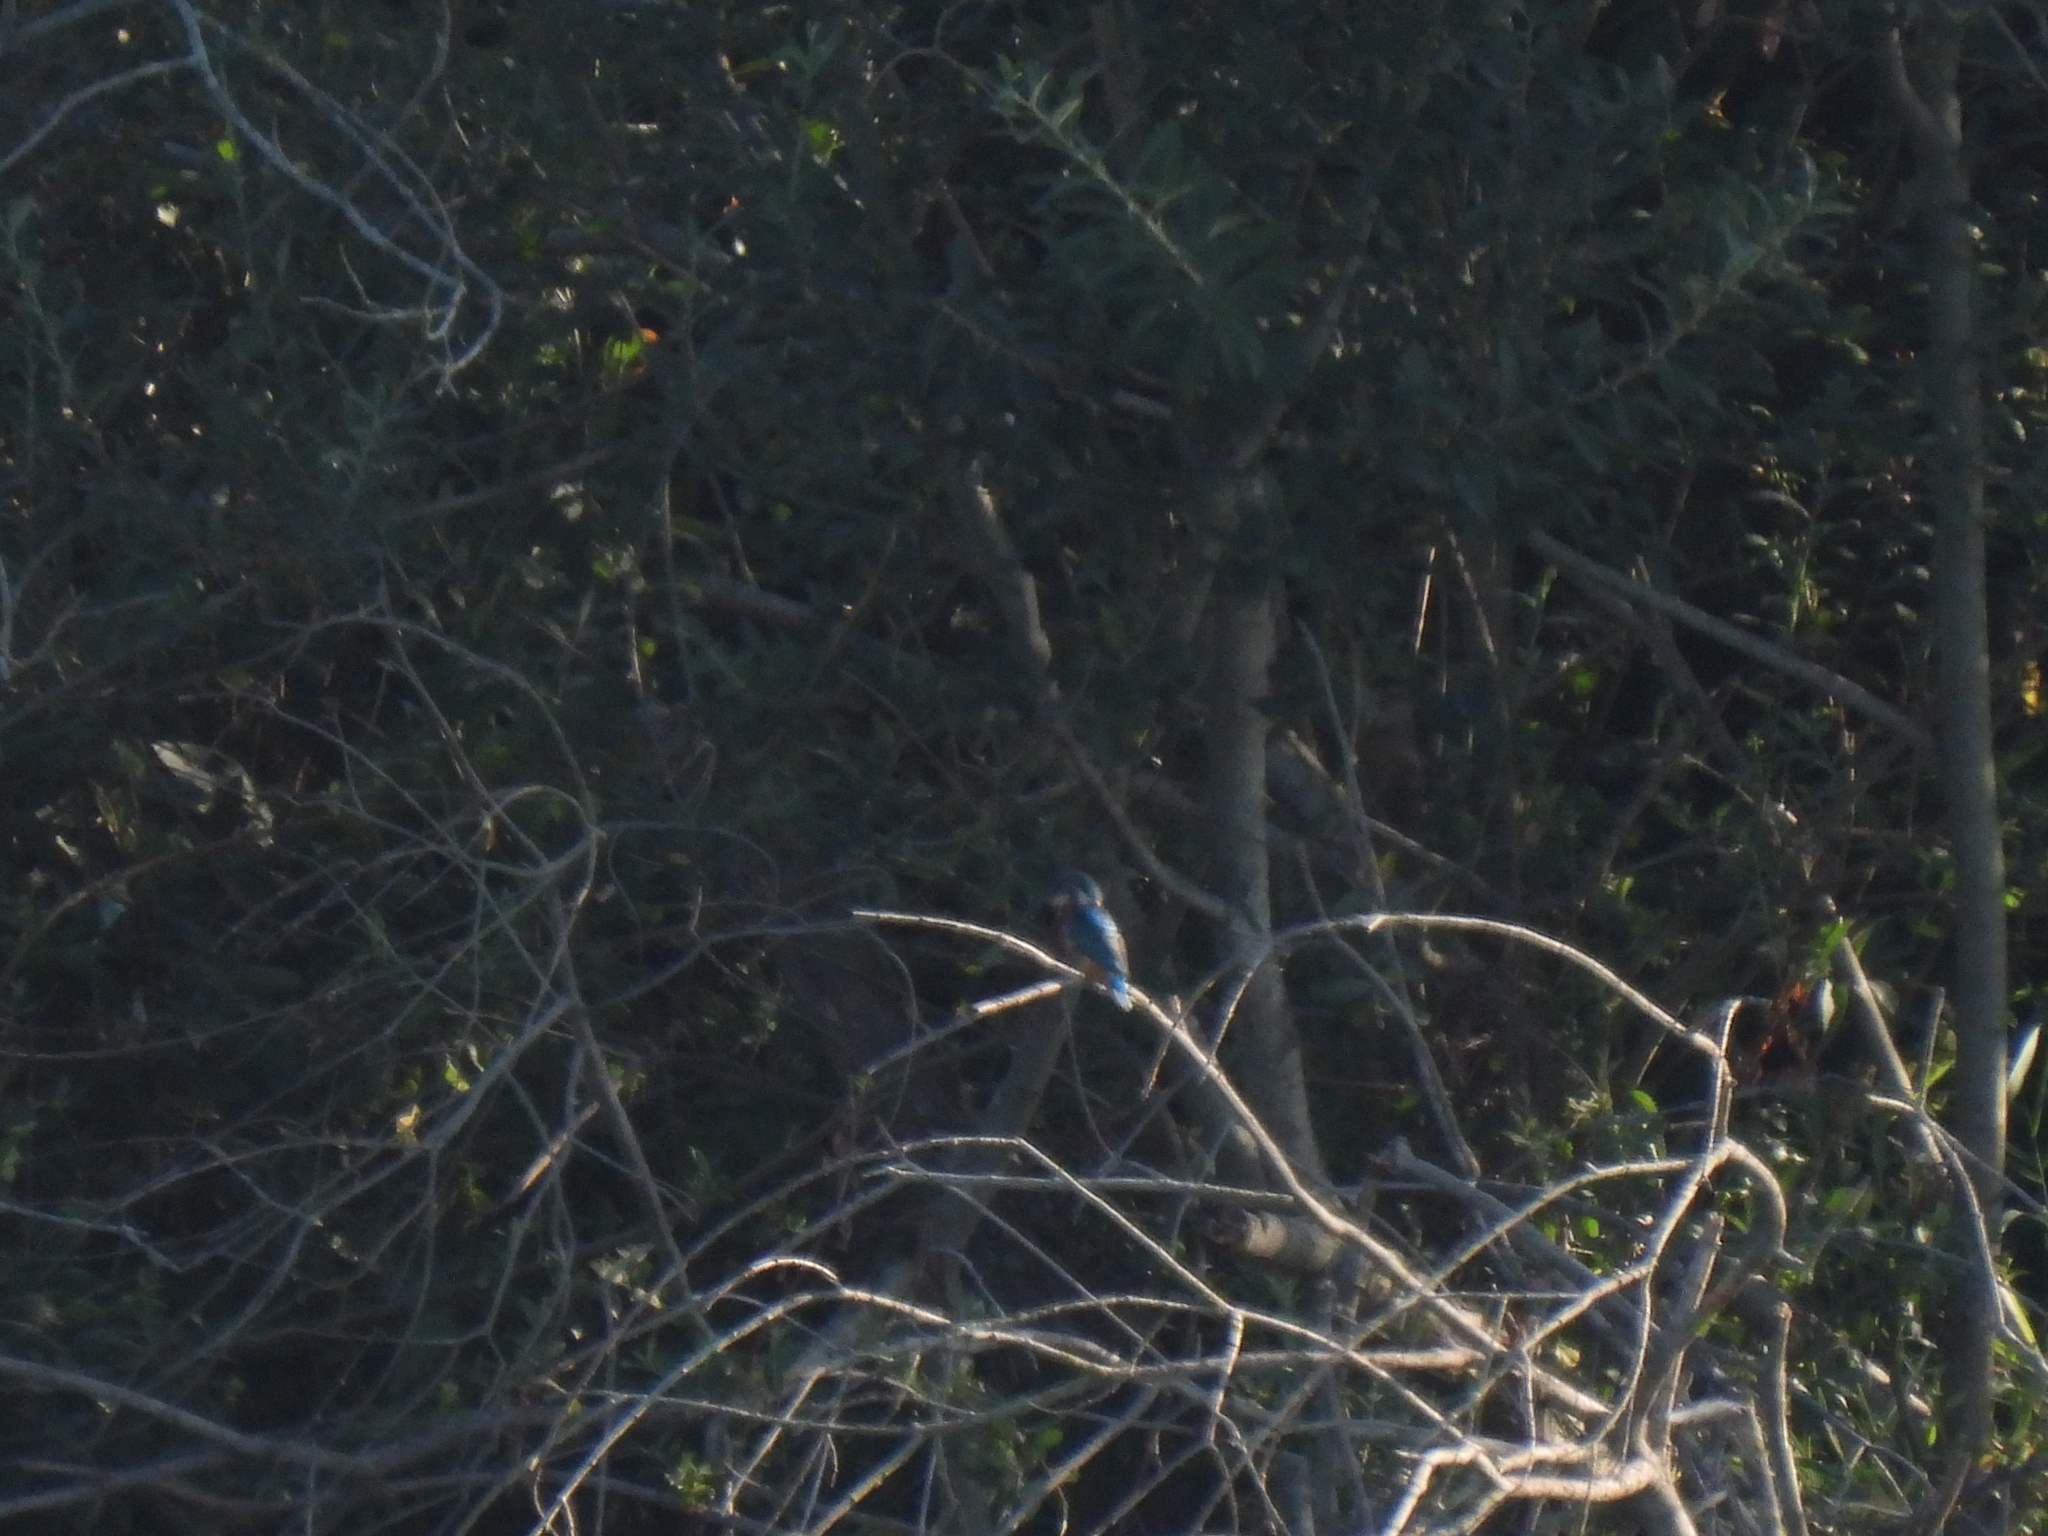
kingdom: Animalia
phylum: Chordata
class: Aves
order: Coraciiformes
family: Alcedinidae
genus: Alcedo
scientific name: Alcedo atthis
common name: Common kingfisher
